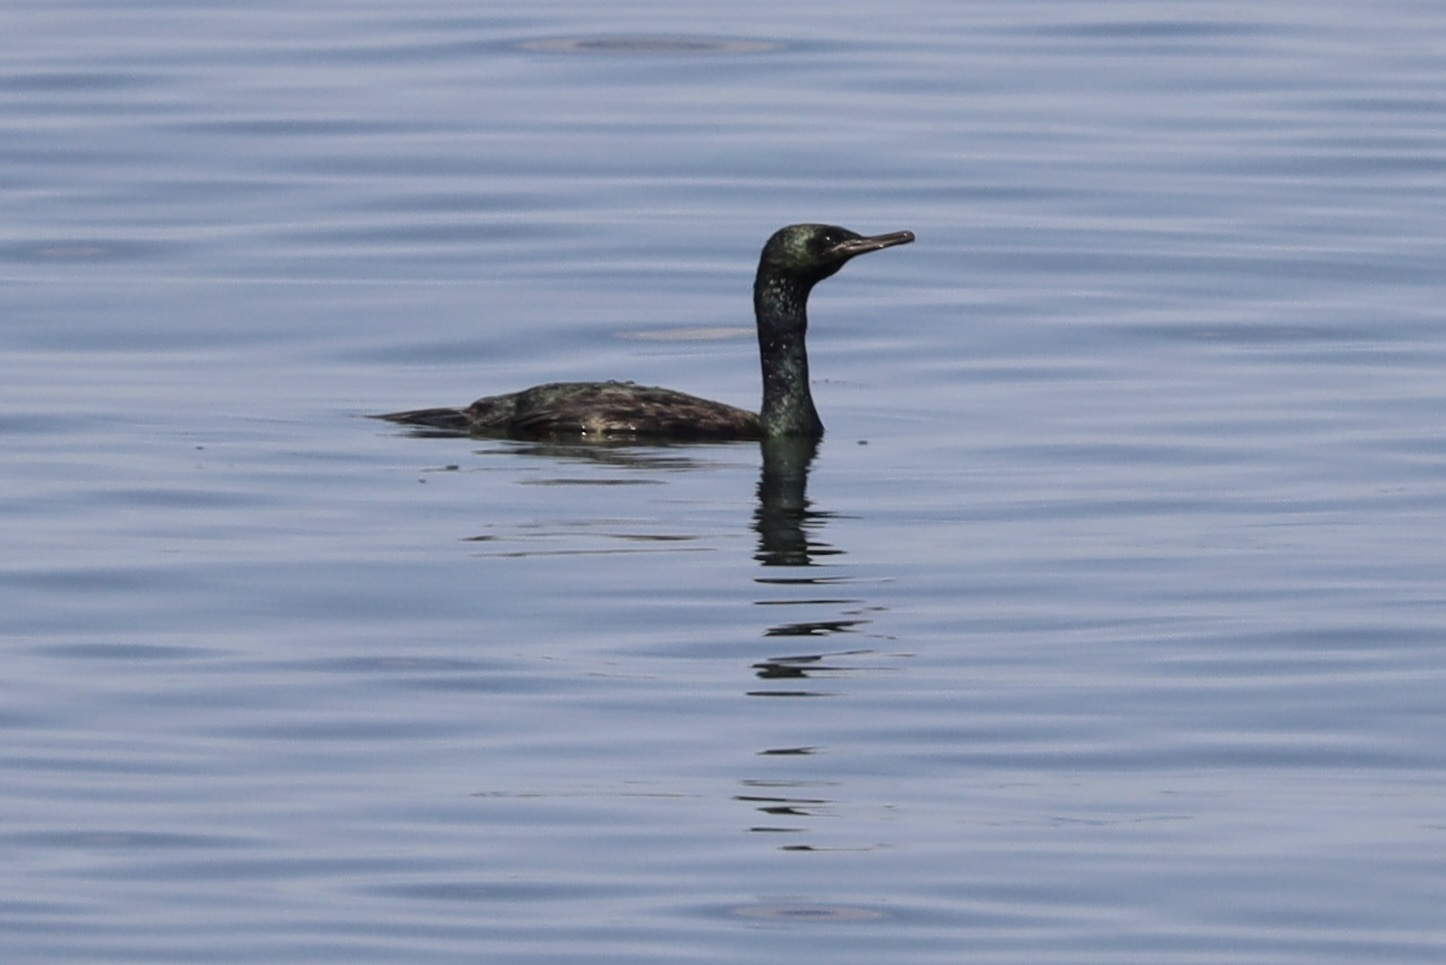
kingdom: Animalia
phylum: Chordata
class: Aves
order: Suliformes
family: Phalacrocoracidae
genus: Phalacrocorax
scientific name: Phalacrocorax pelagicus
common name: Pelagic cormorant
